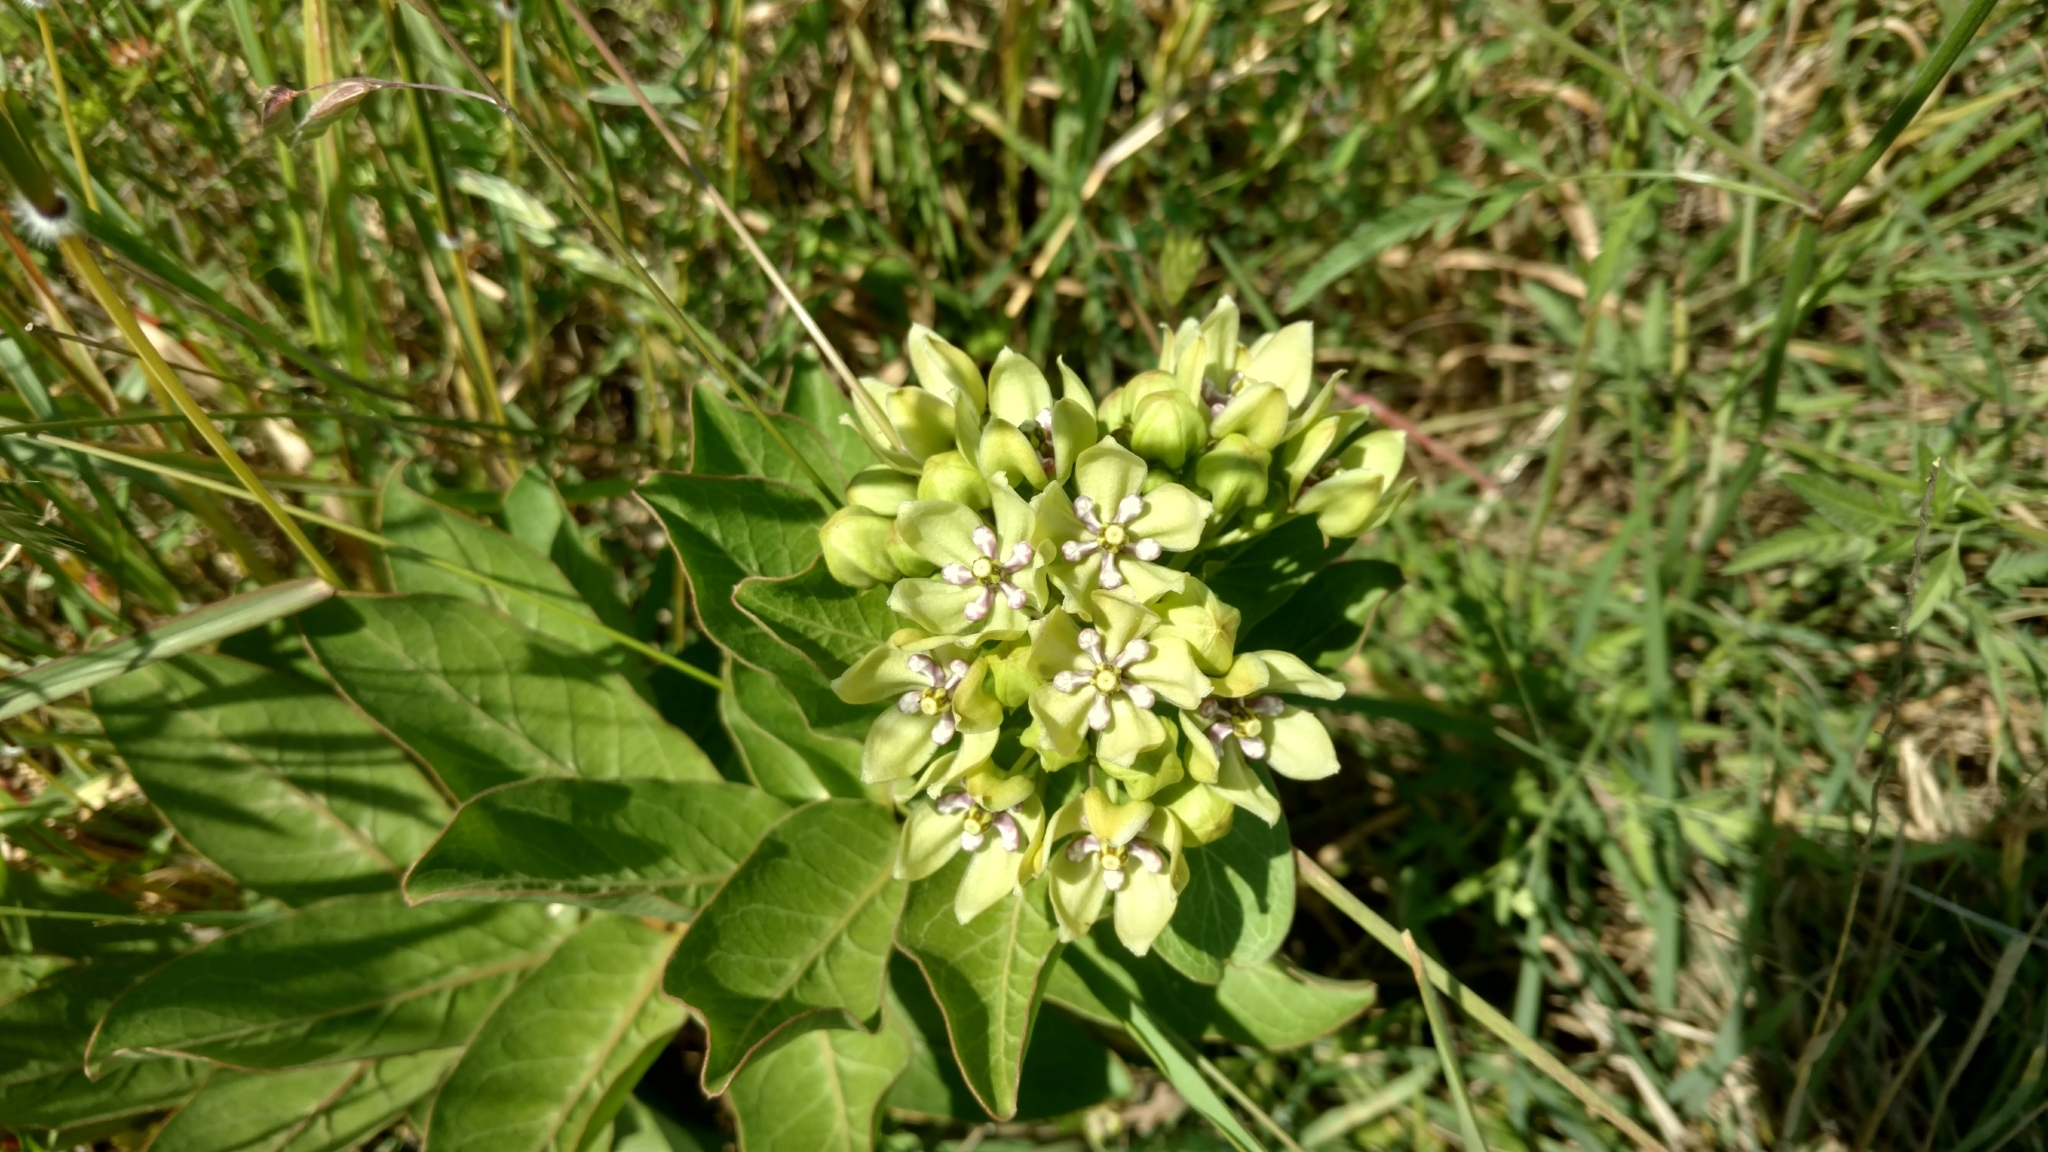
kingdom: Plantae
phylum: Tracheophyta
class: Magnoliopsida
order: Gentianales
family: Apocynaceae
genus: Asclepias
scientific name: Asclepias viridis
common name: Antelope-horns
